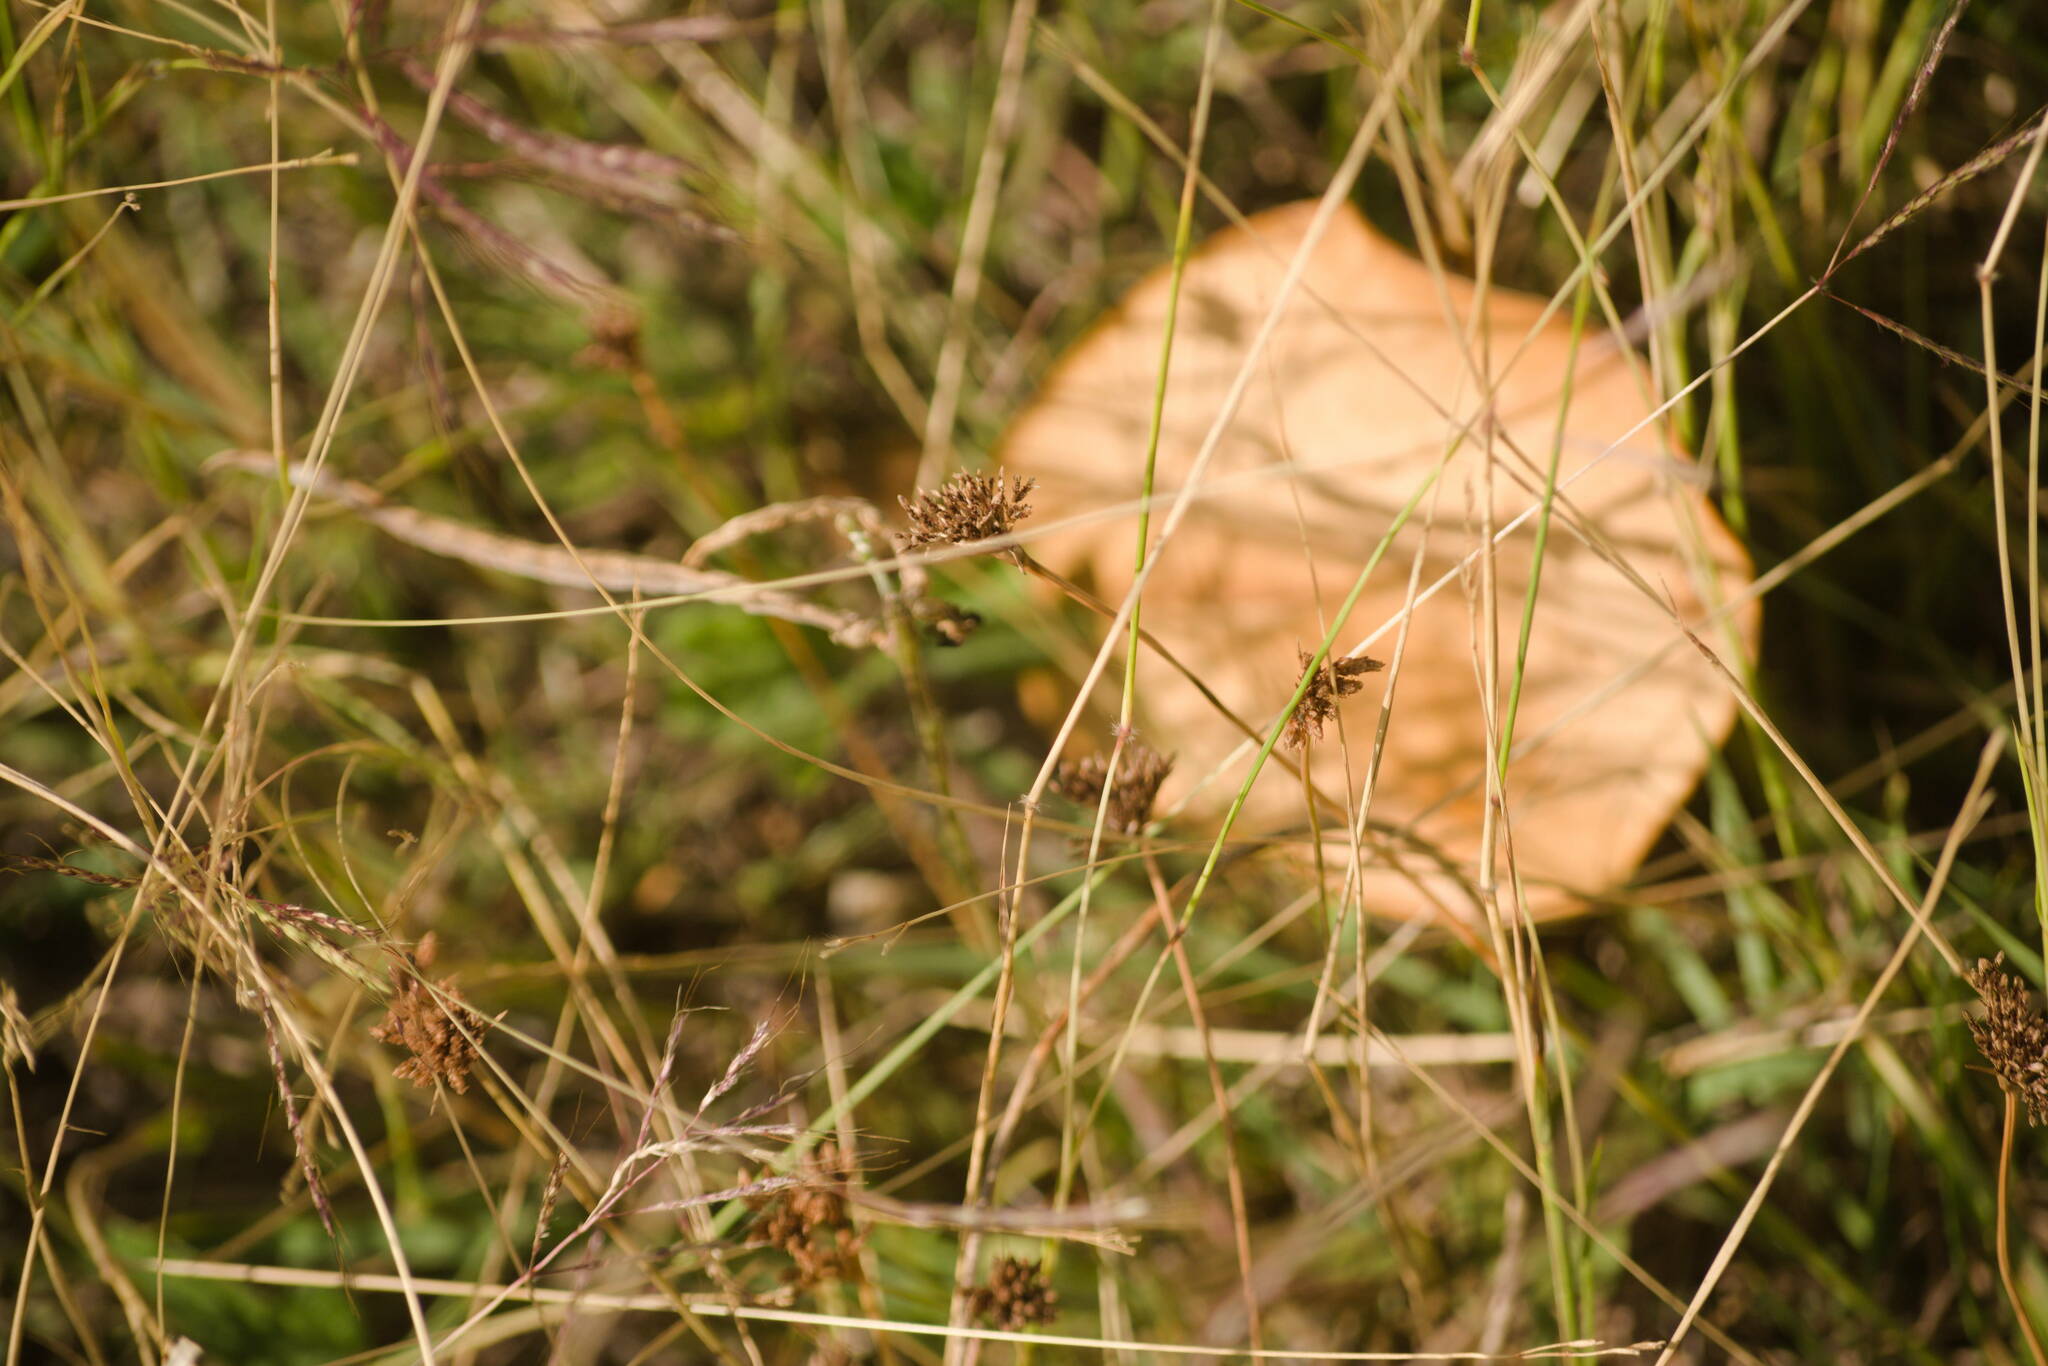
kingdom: Plantae
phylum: Tracheophyta
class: Liliopsida
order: Poales
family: Cyperaceae
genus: Fimbristylis
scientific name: Fimbristylis cymosa
